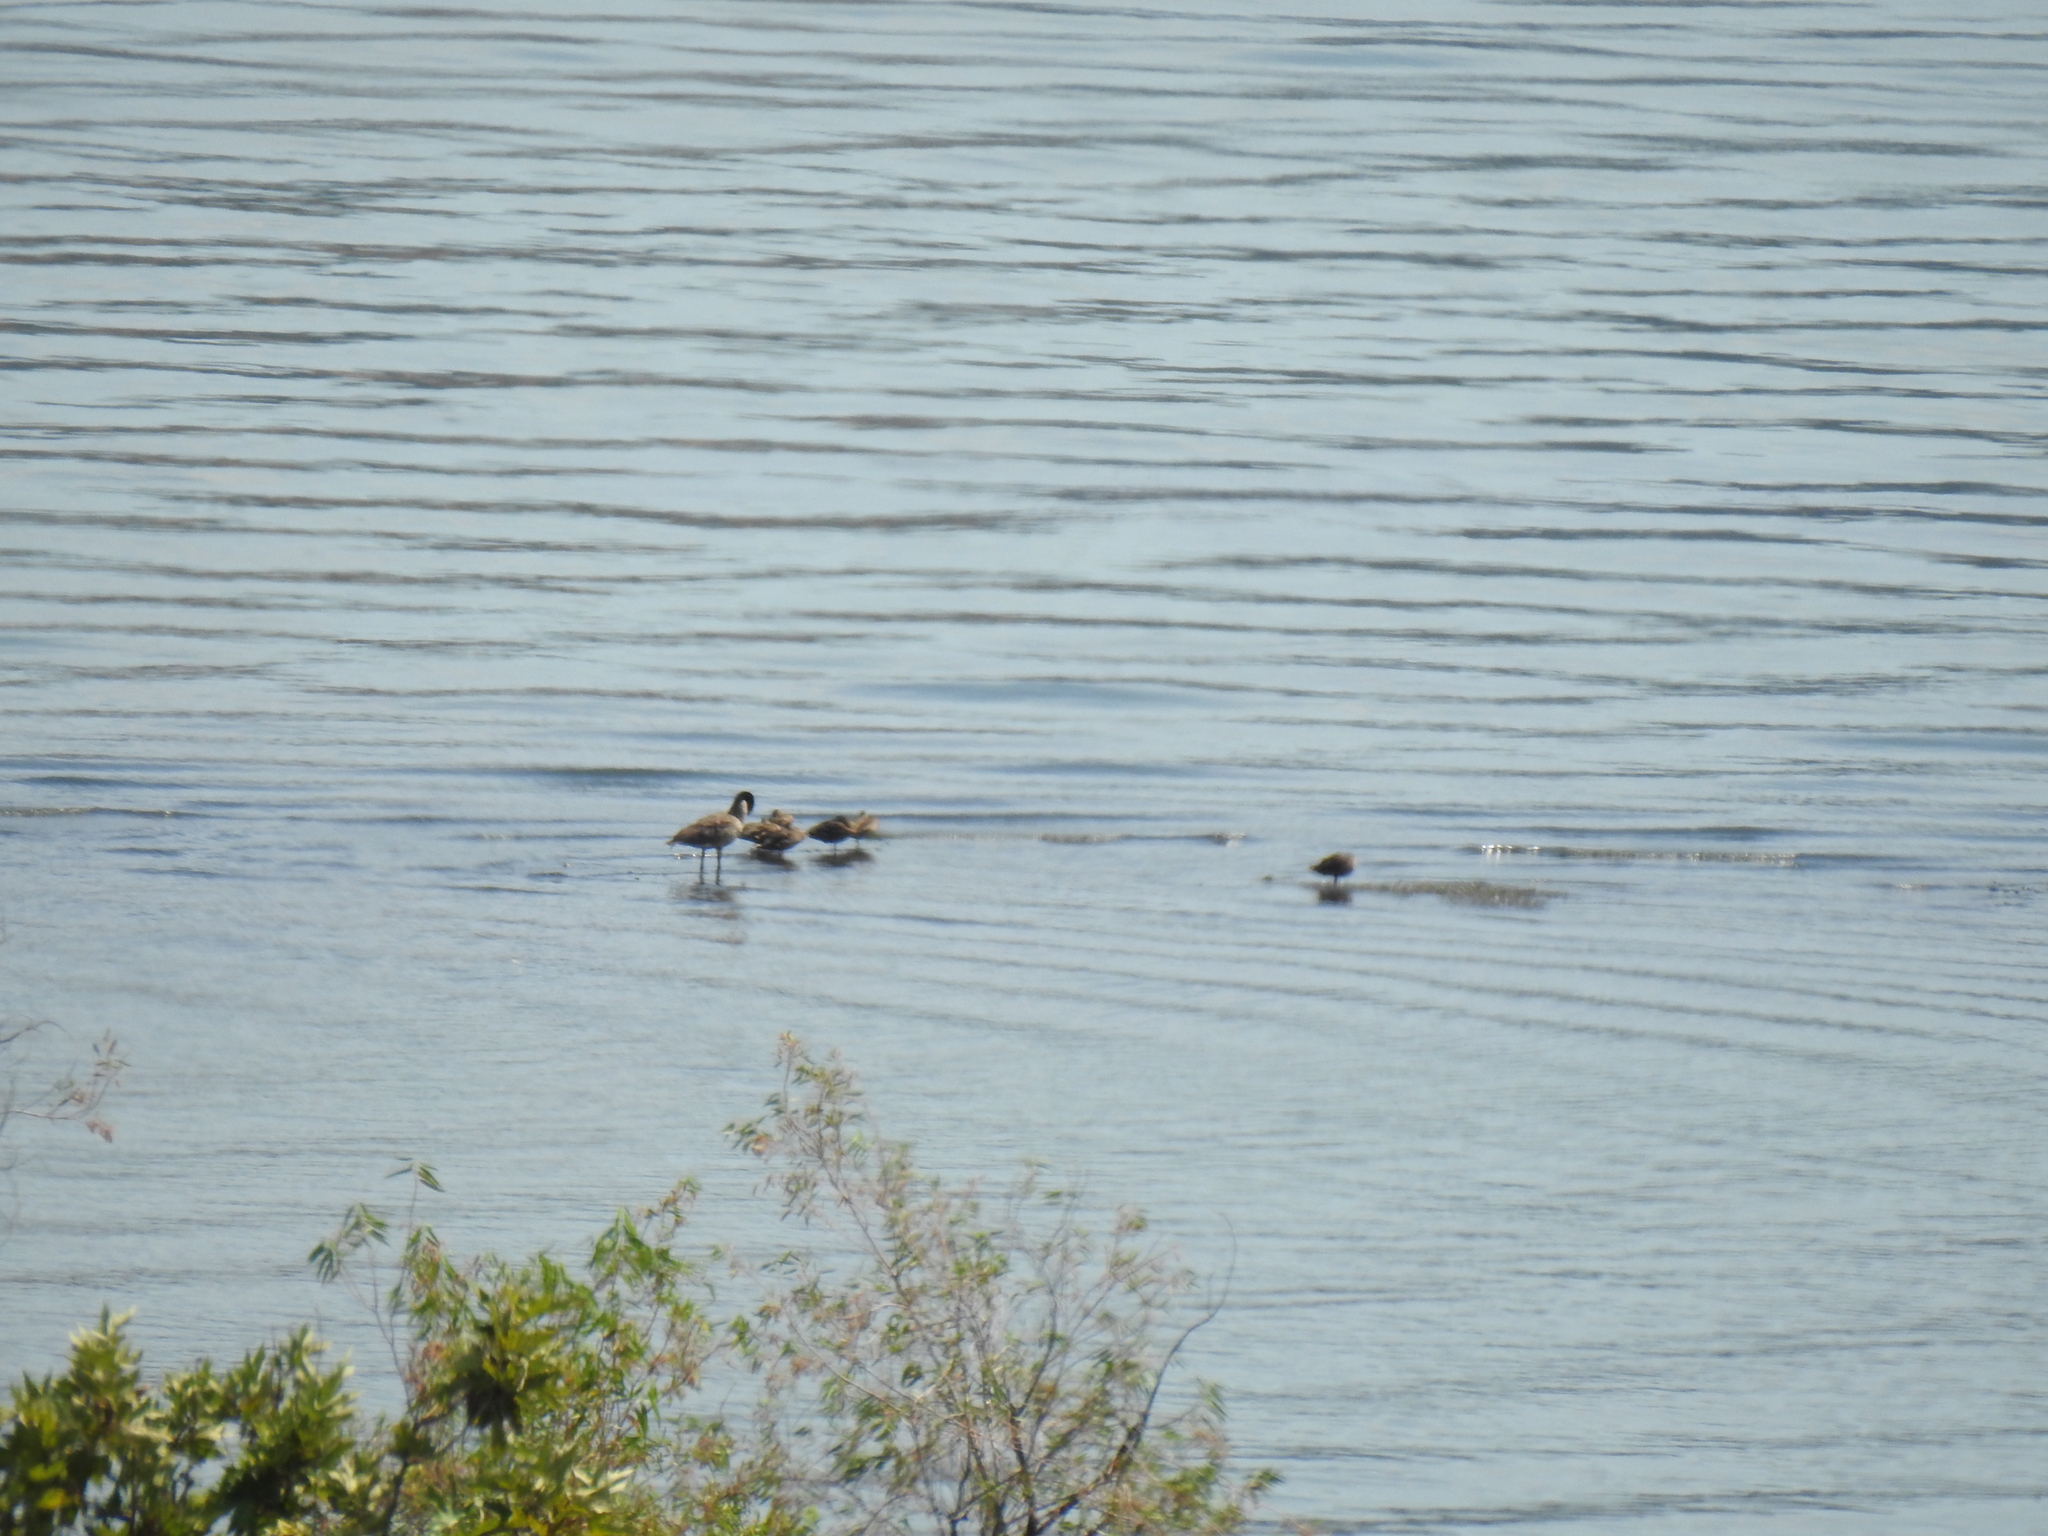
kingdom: Animalia
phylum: Chordata
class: Aves
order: Anseriformes
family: Anatidae
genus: Branta
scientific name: Branta canadensis
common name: Canada goose
